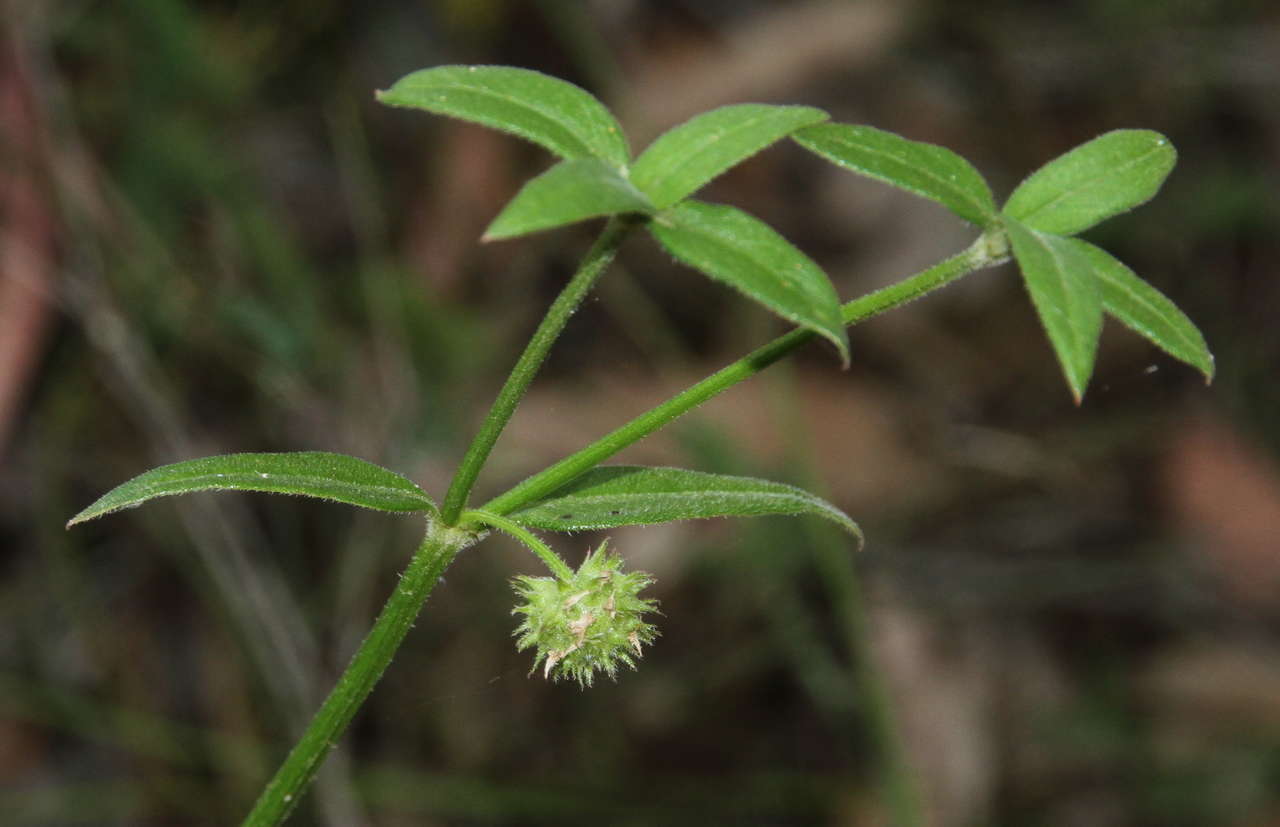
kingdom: Plantae
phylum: Tracheophyta
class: Magnoliopsida
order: Gentianales
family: Rubiaceae
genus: Opercularia
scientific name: Opercularia aspera
